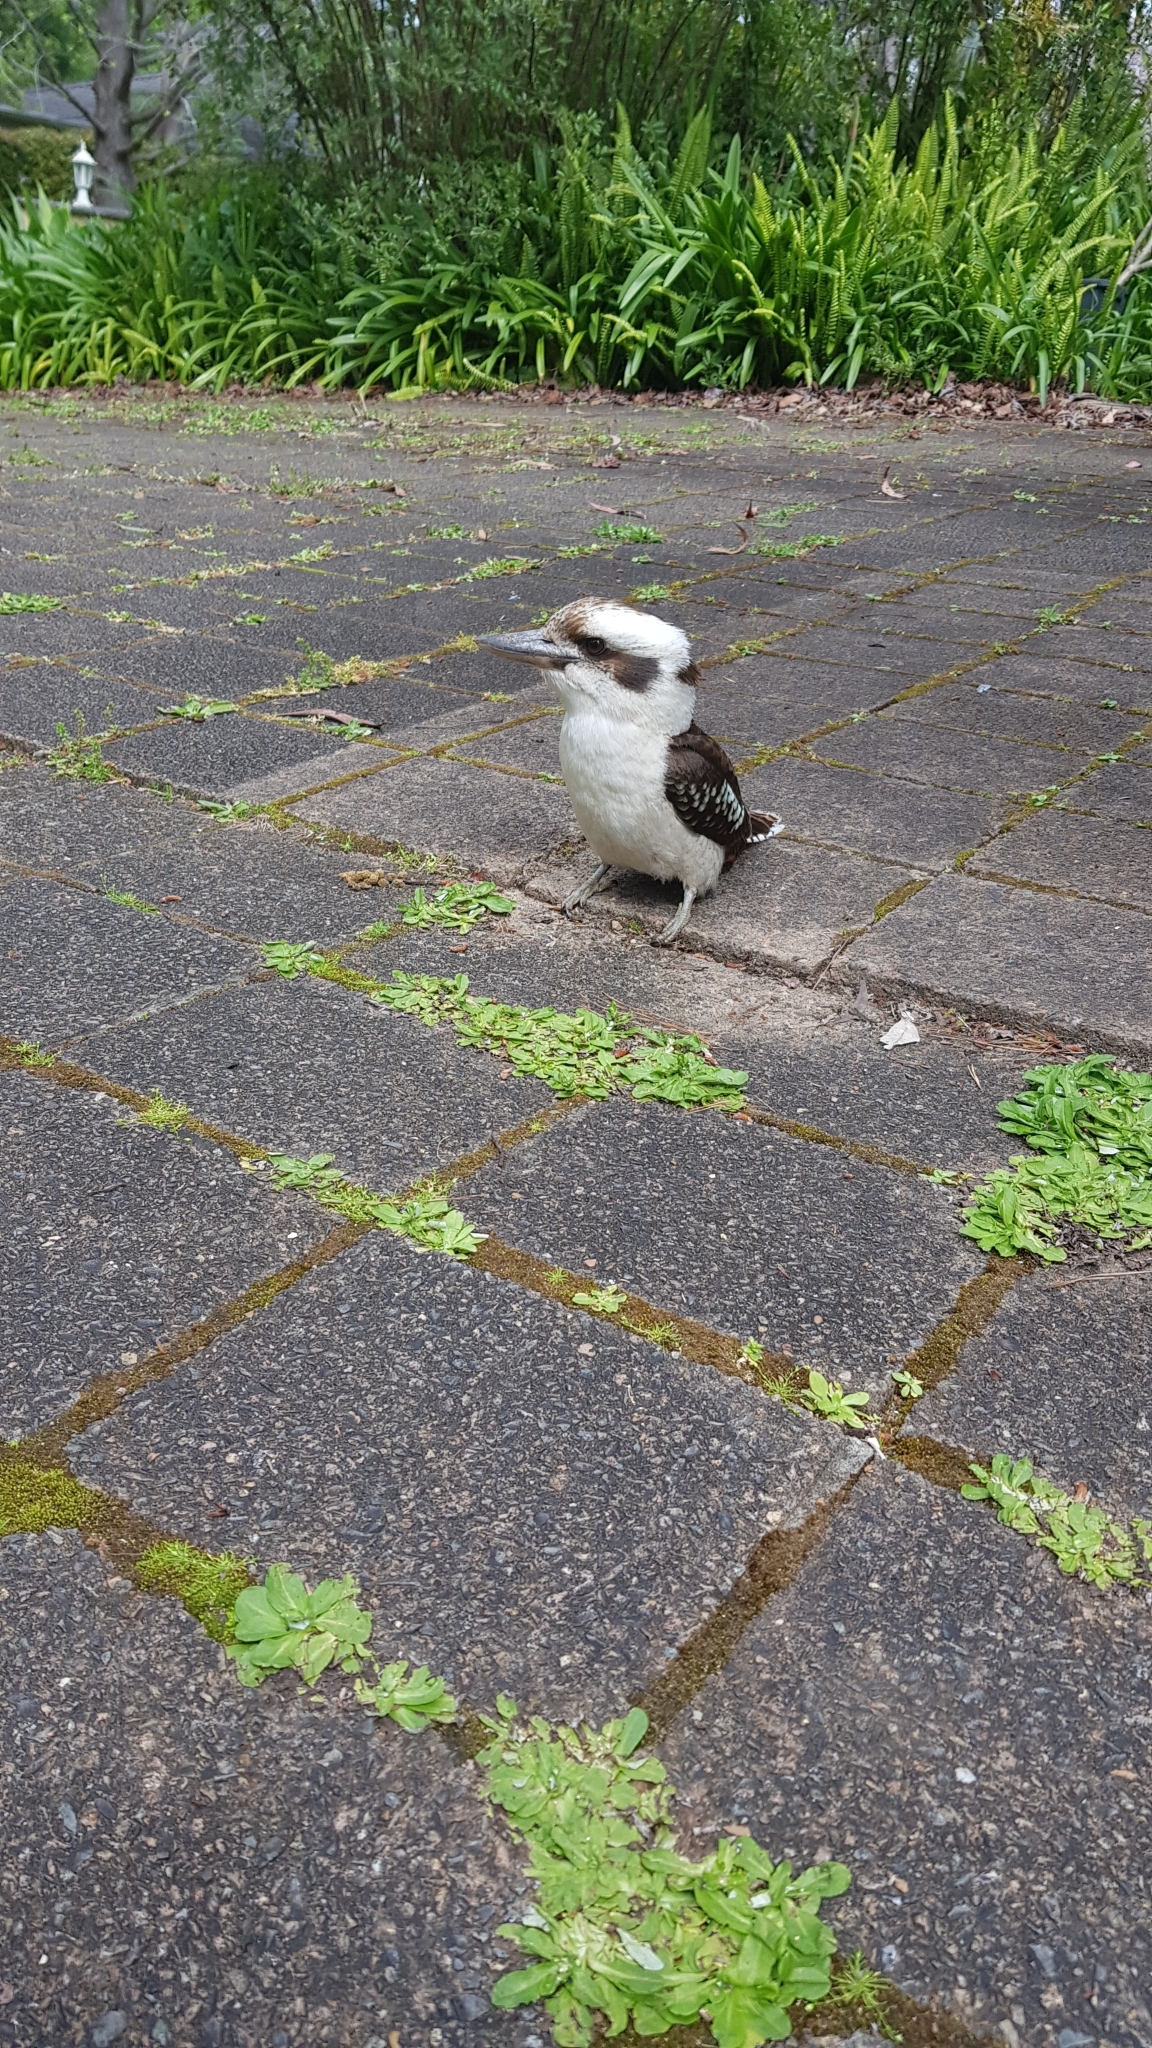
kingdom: Animalia
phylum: Chordata
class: Aves
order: Coraciiformes
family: Alcedinidae
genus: Dacelo
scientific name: Dacelo novaeguineae
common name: Laughing kookaburra
